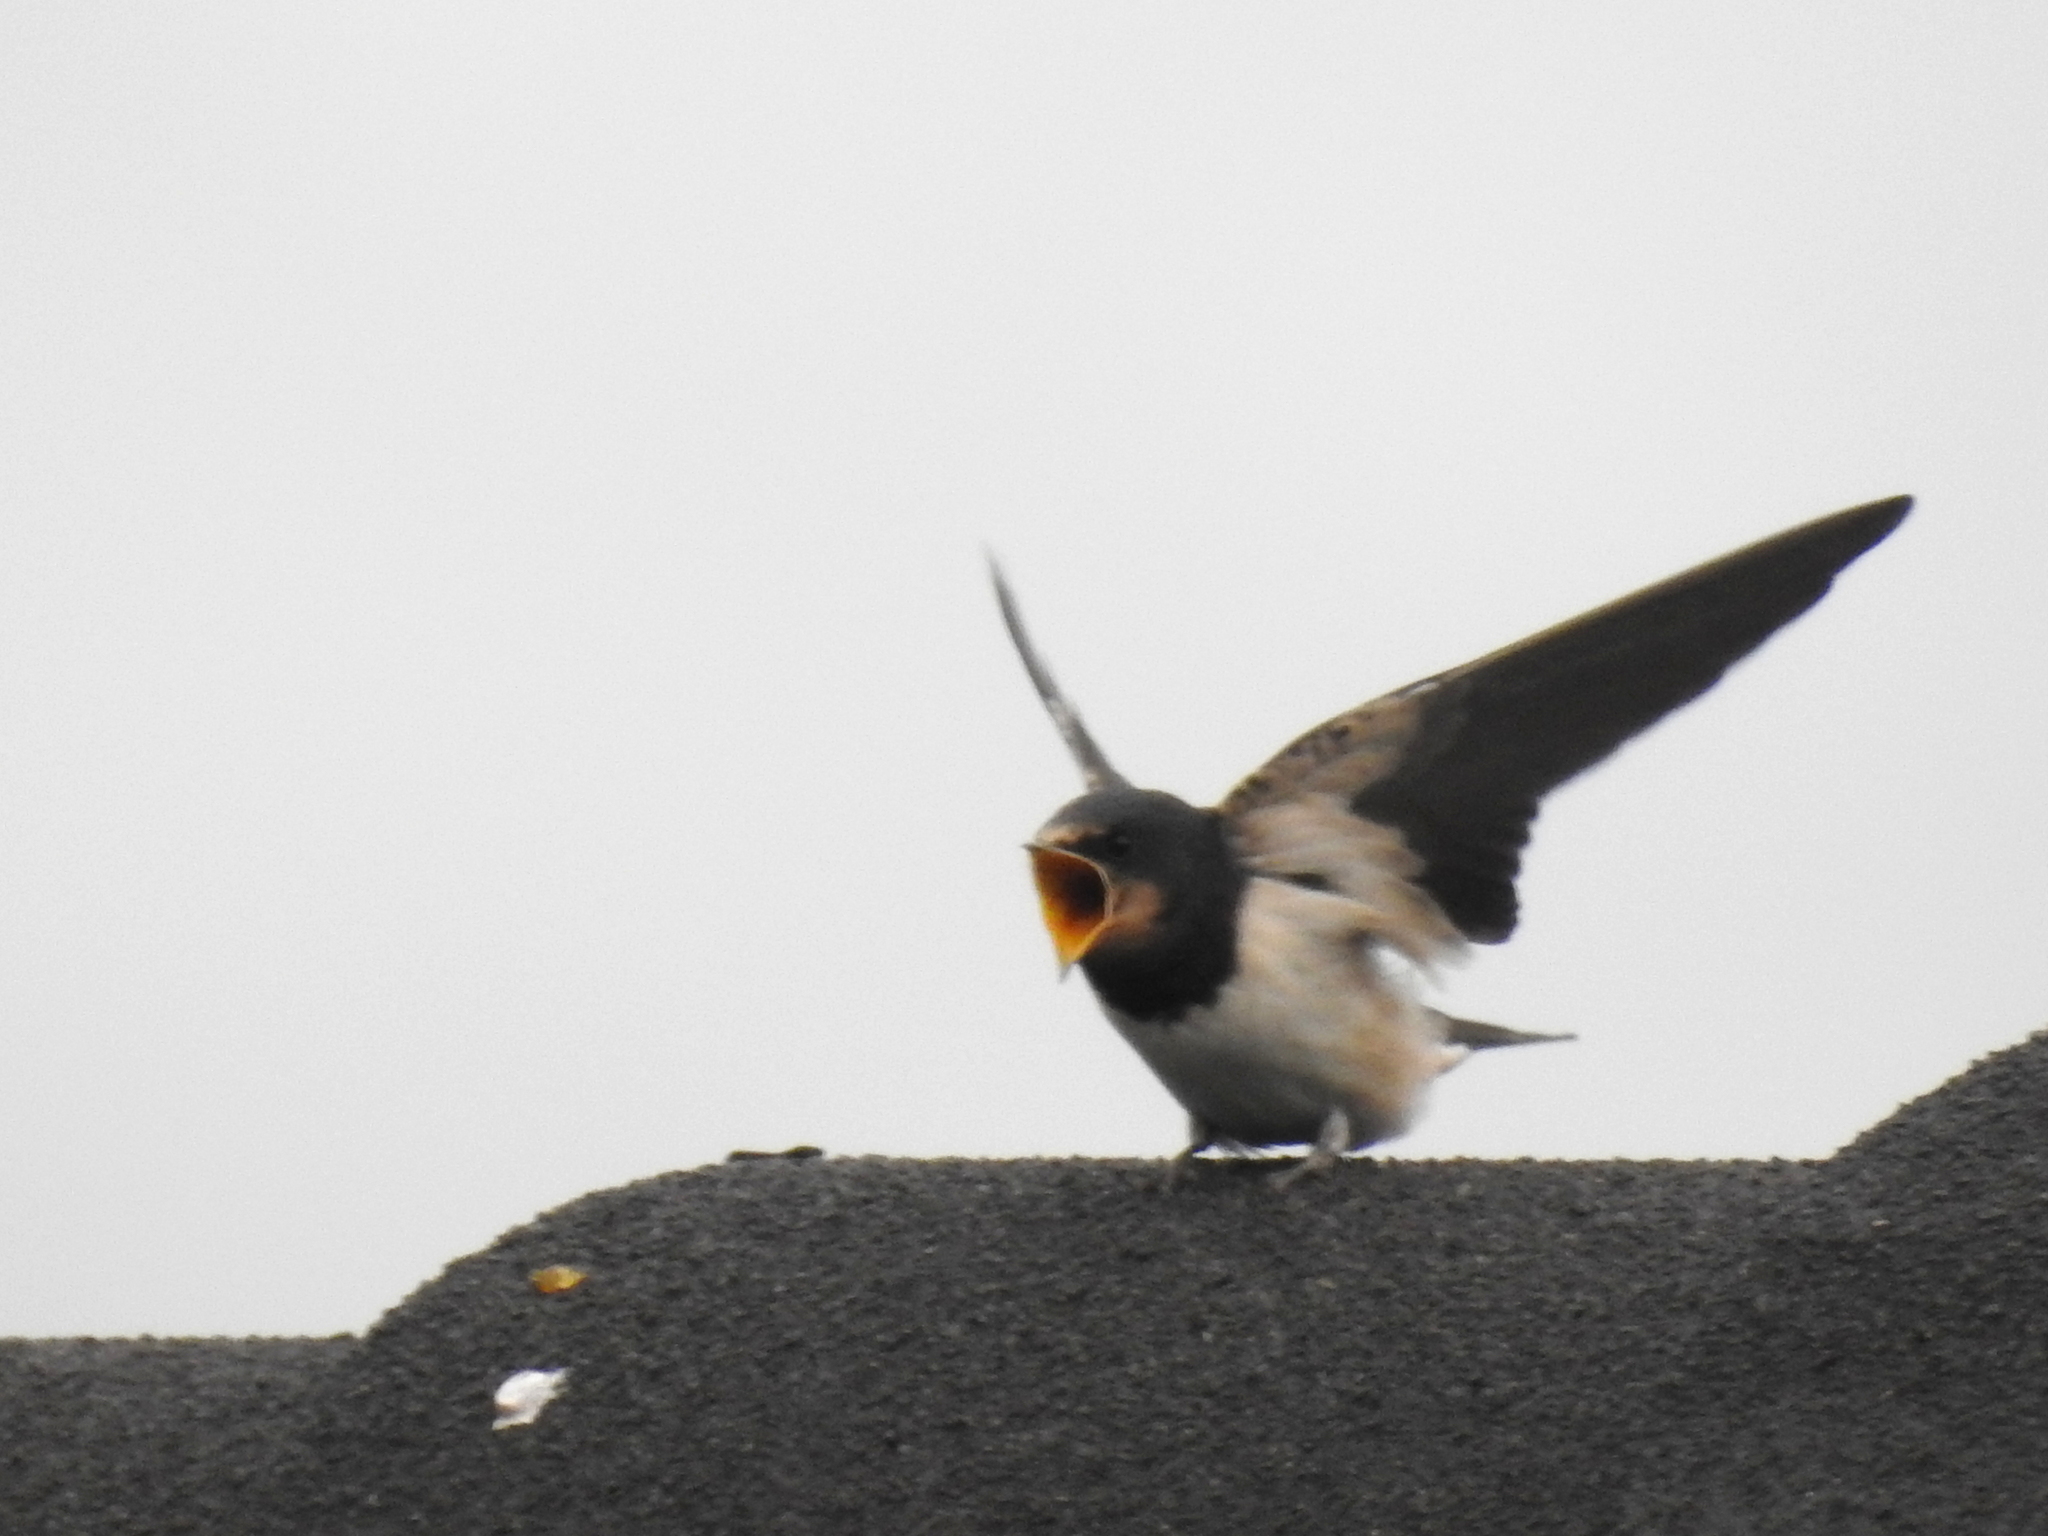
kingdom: Animalia
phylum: Chordata
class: Aves
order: Passeriformes
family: Hirundinidae
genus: Hirundo
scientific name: Hirundo rustica
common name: Barn swallow
